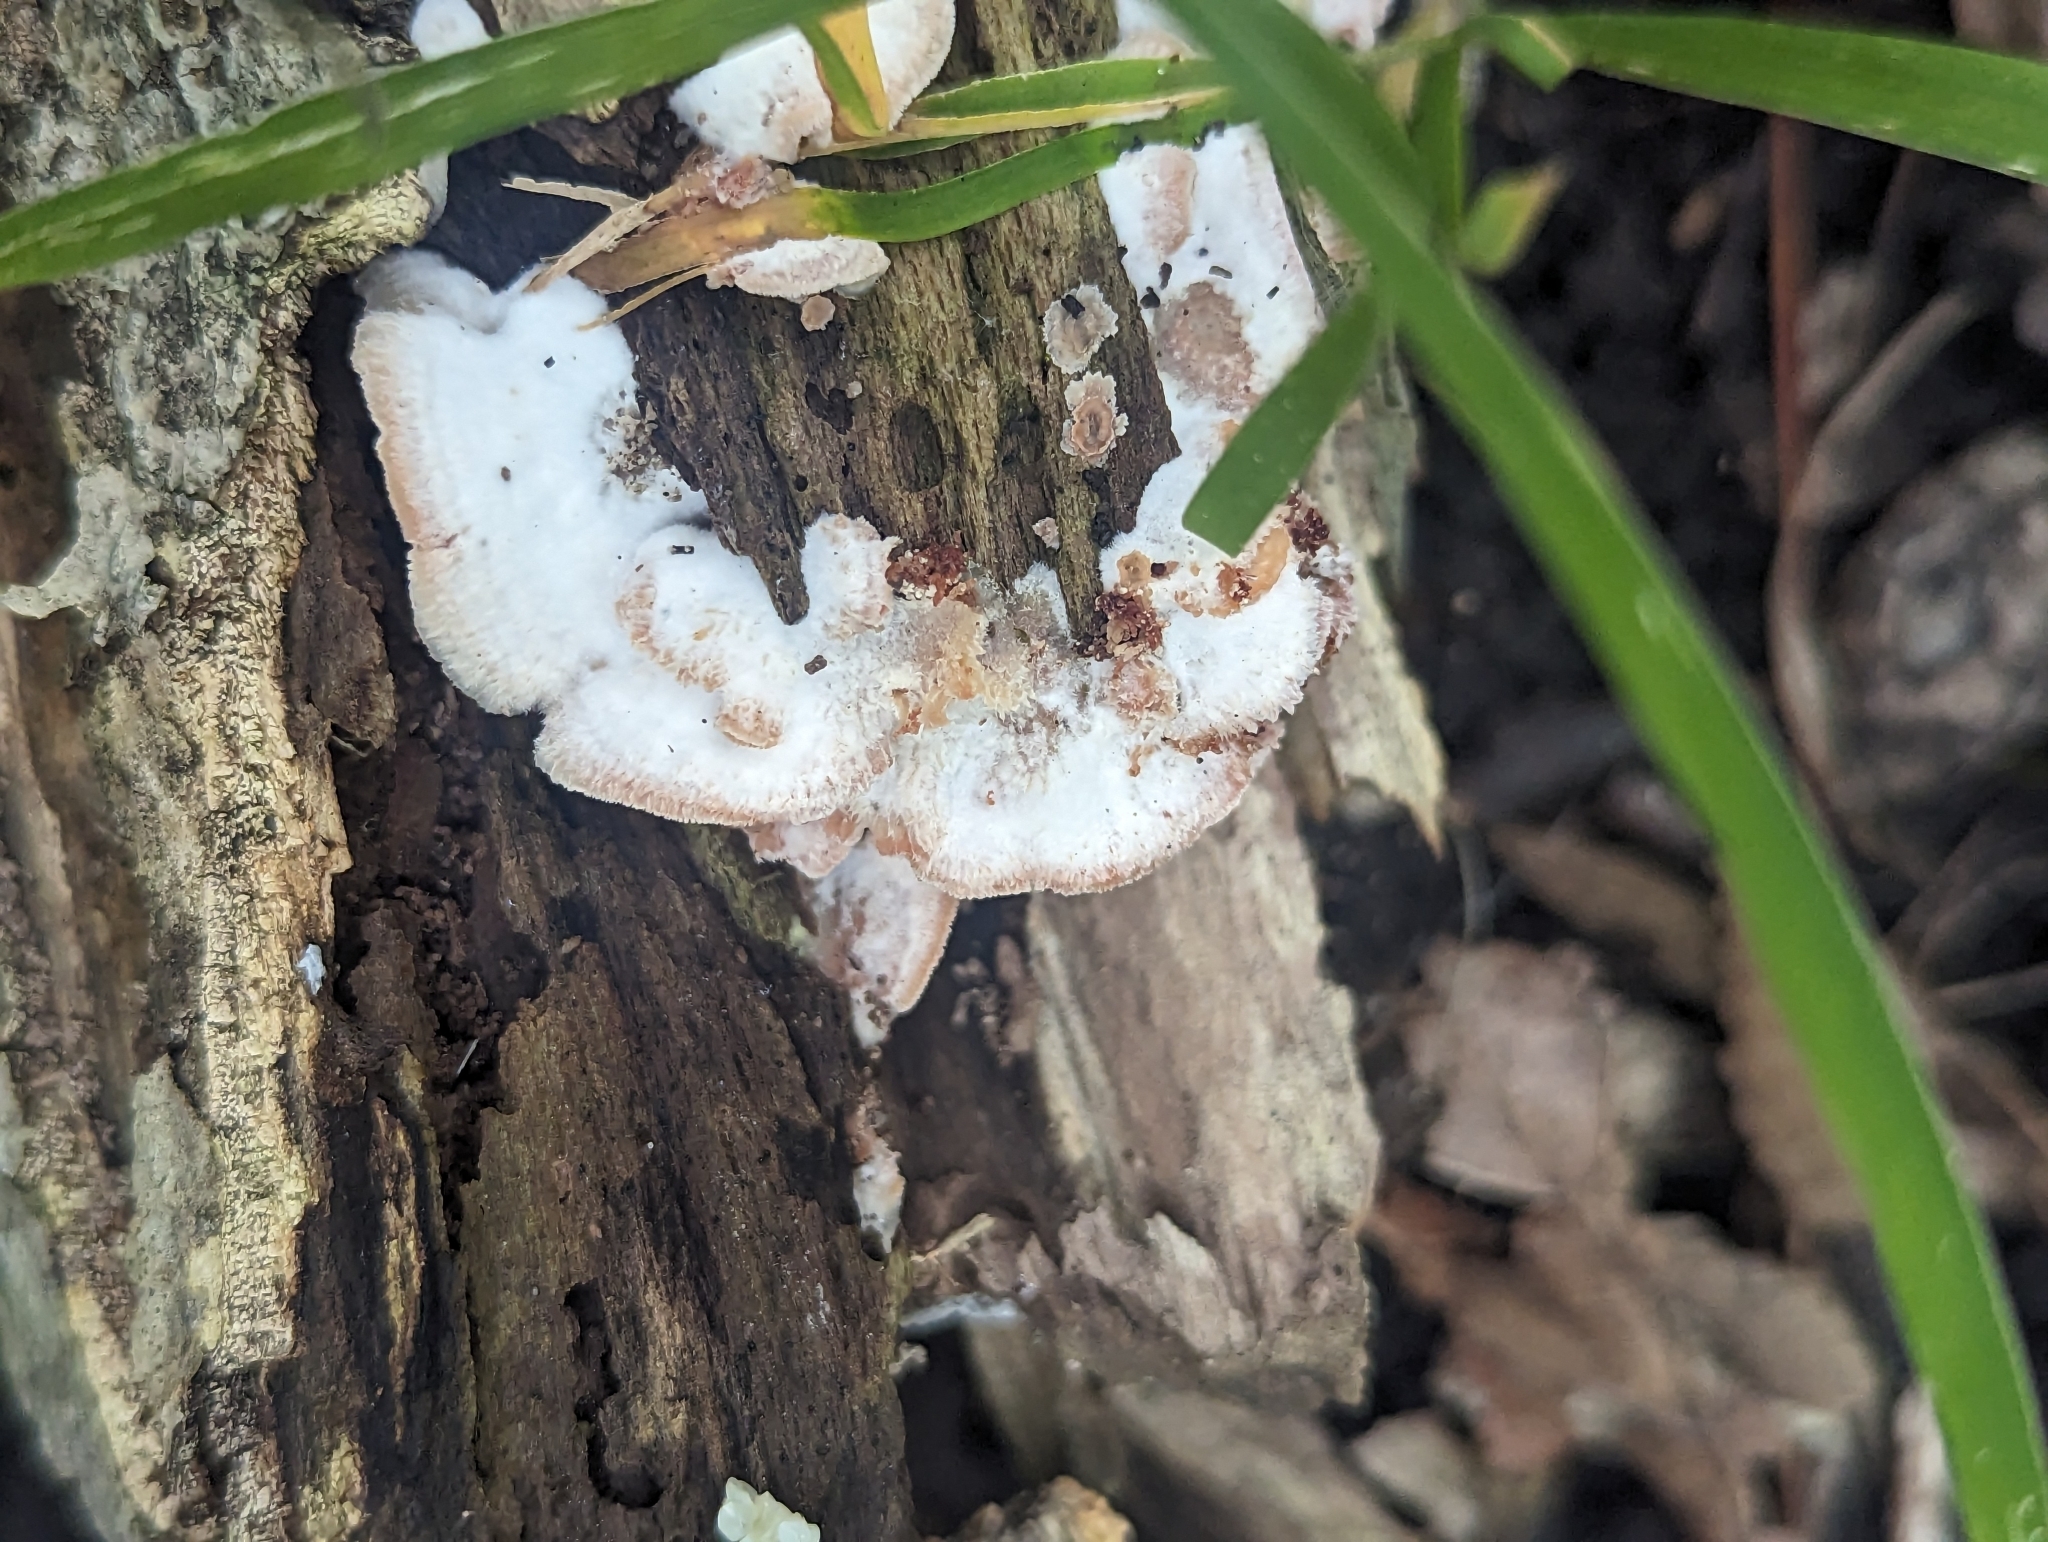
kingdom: Fungi
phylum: Basidiomycota
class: Agaricomycetes
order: Polyporales
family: Meruliaceae
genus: Phlebia
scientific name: Phlebia tremellosa
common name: Jelly rot
